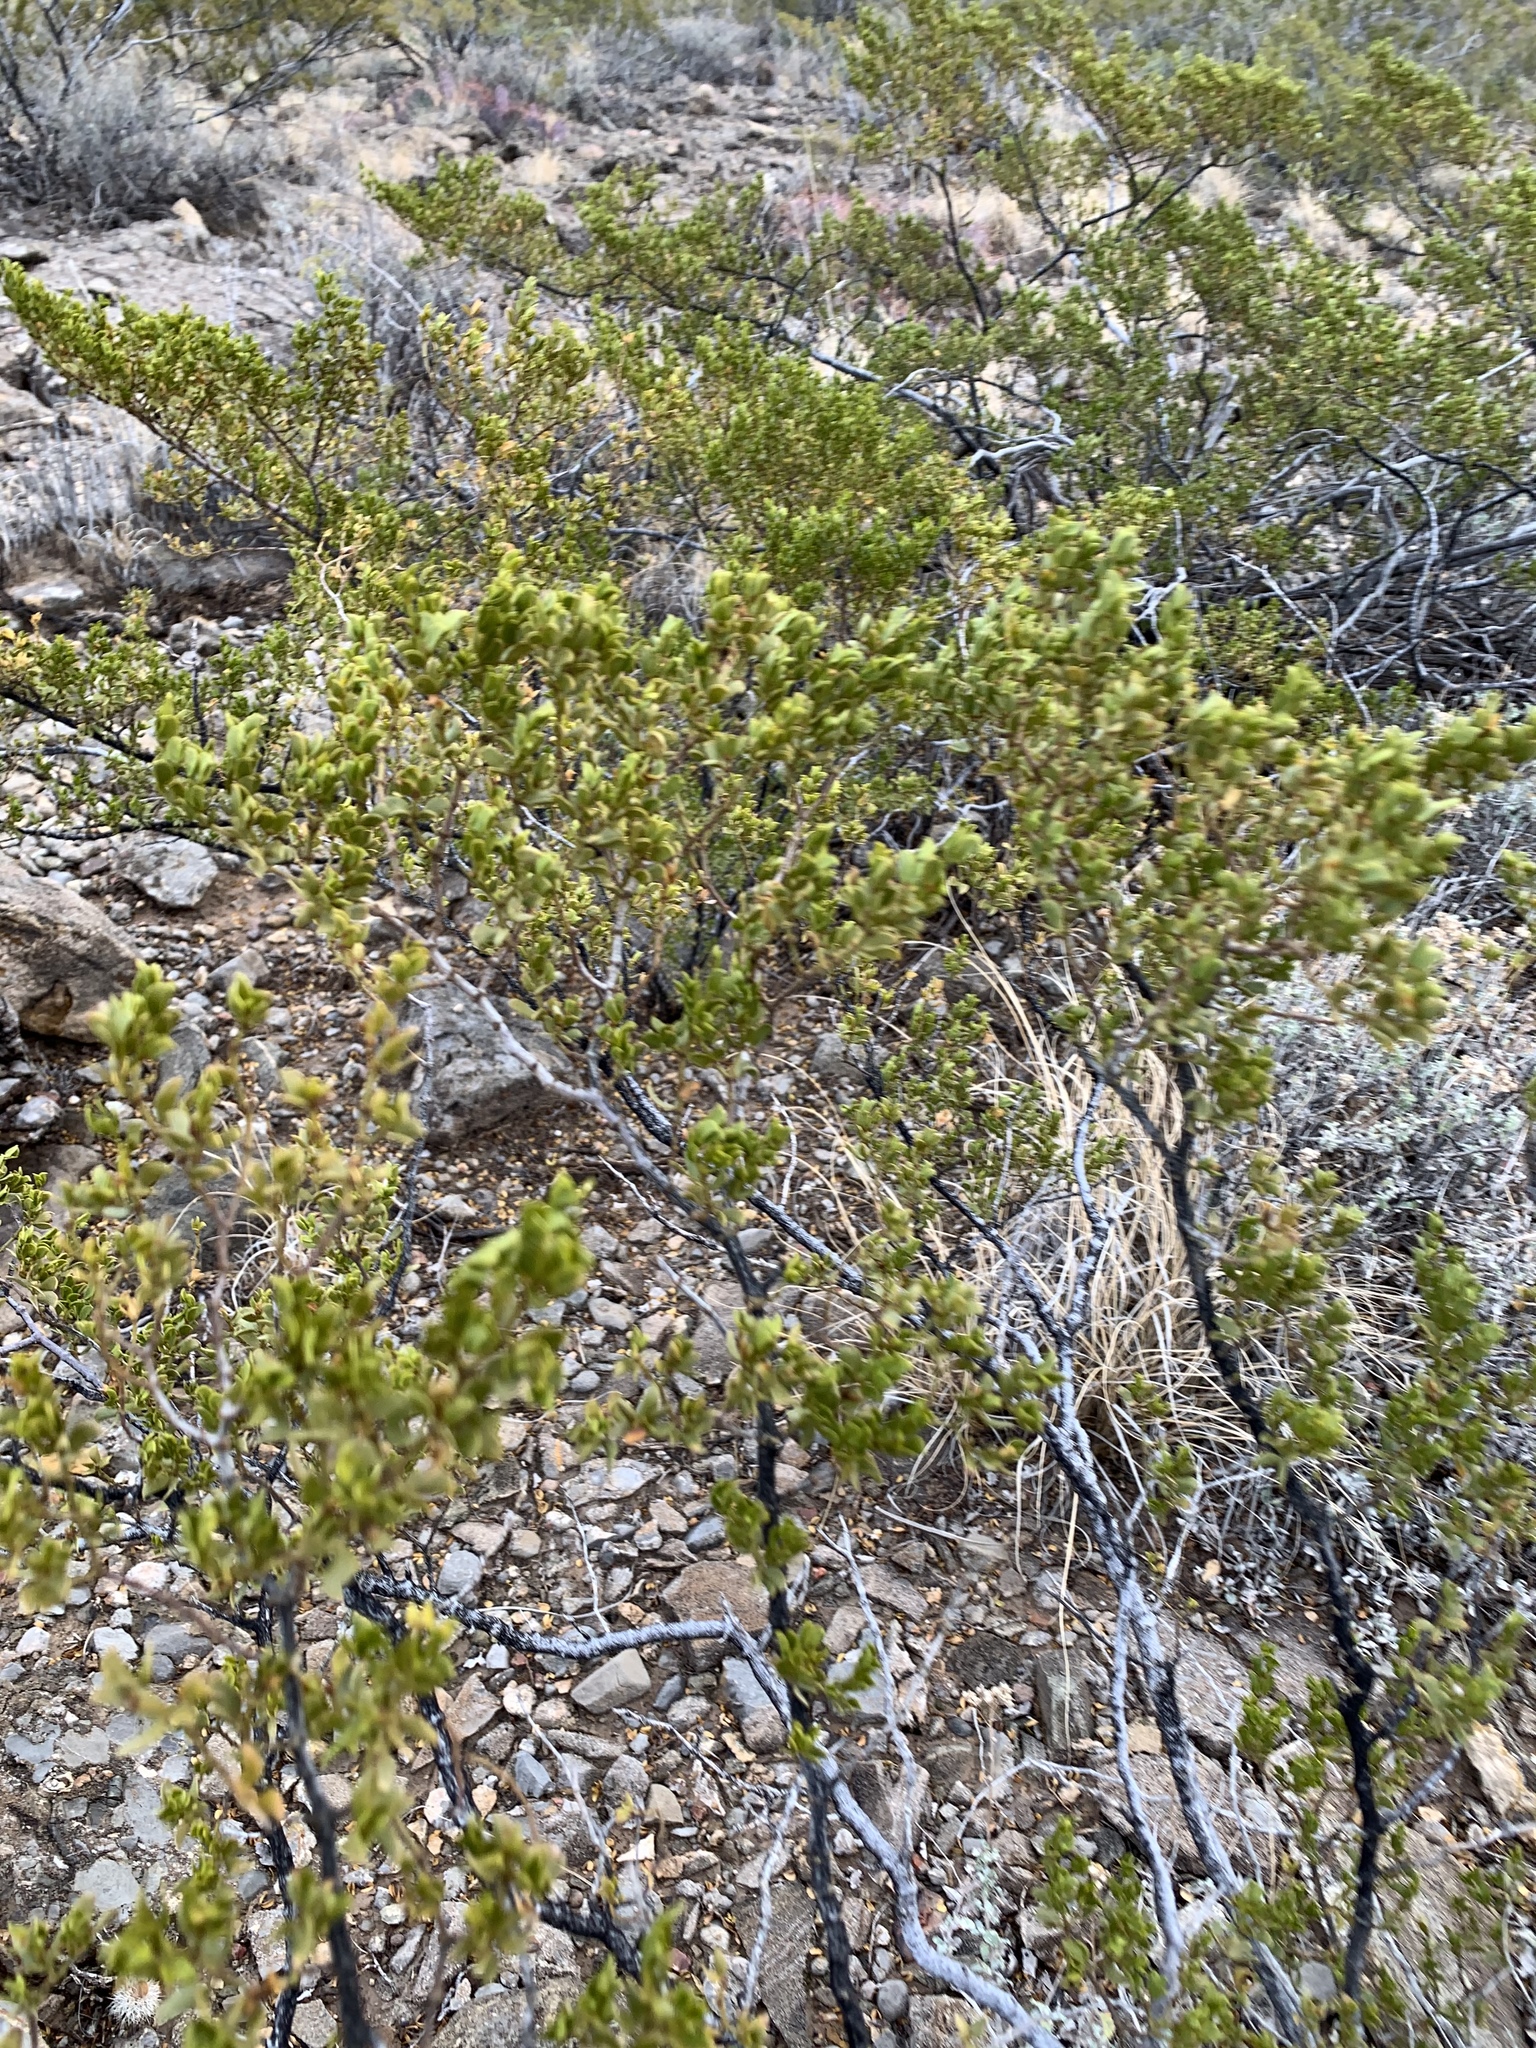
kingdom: Plantae
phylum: Tracheophyta
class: Magnoliopsida
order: Zygophyllales
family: Zygophyllaceae
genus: Larrea
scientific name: Larrea tridentata
